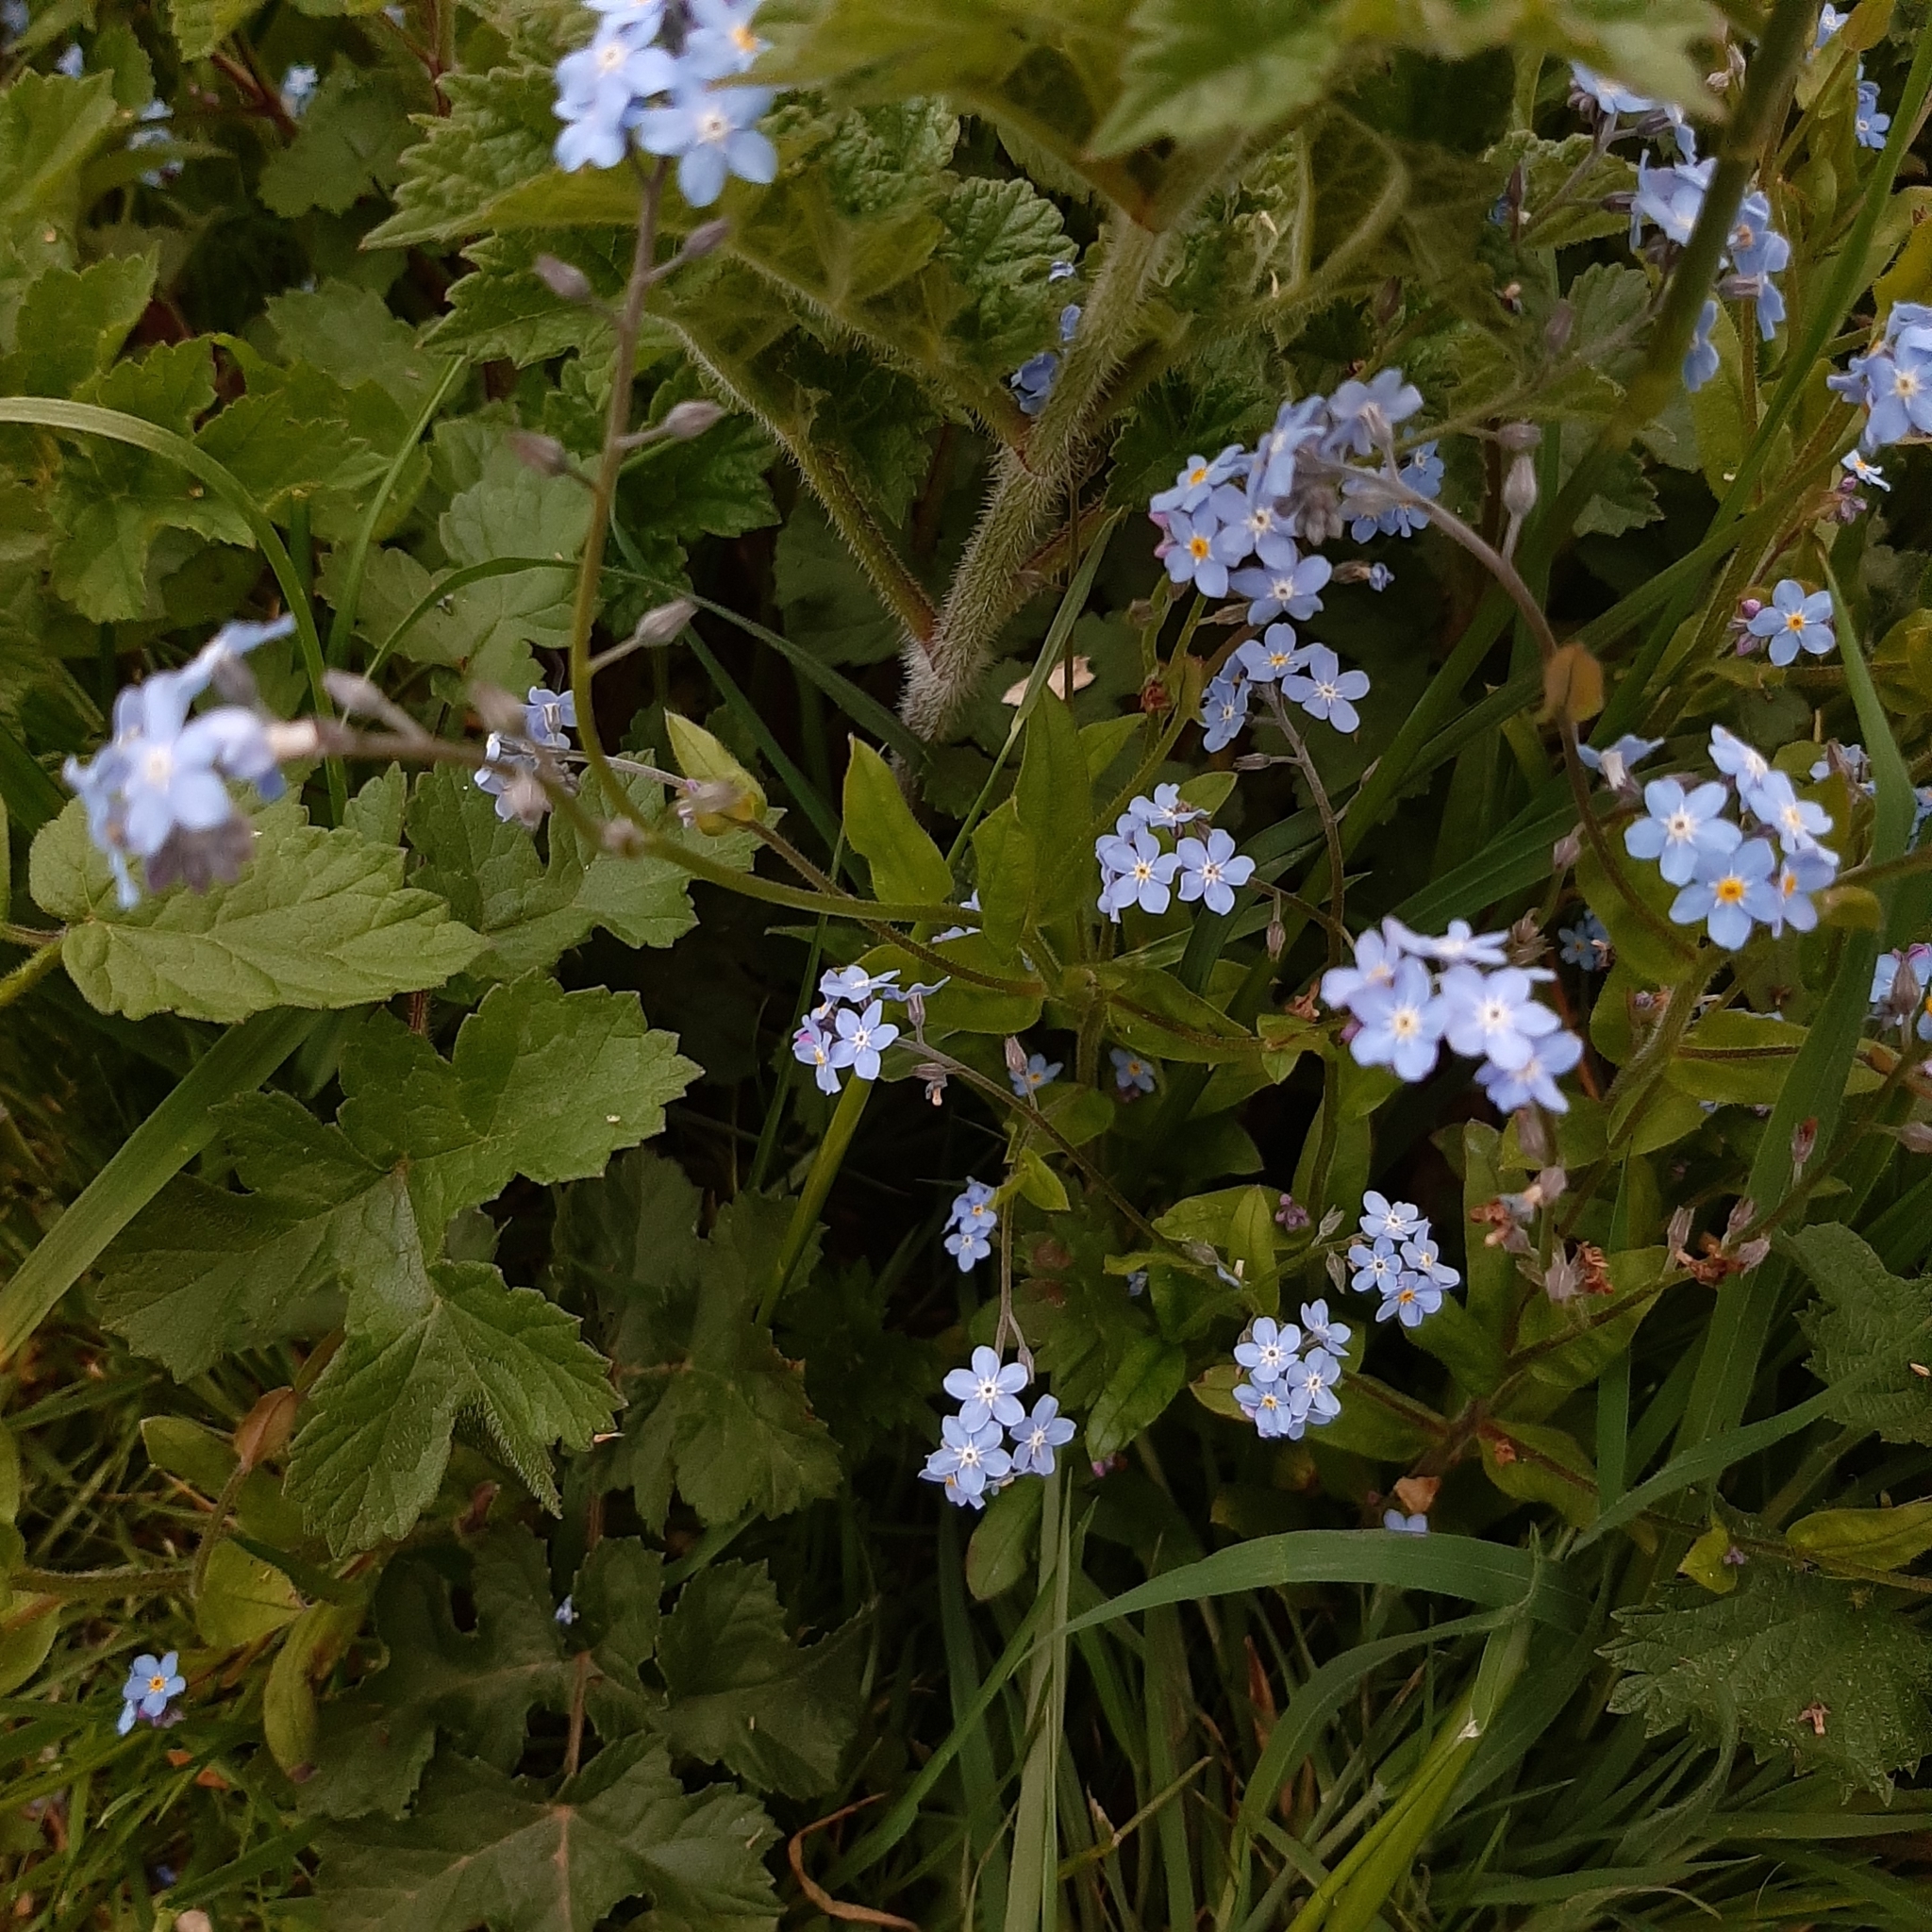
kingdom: Plantae
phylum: Tracheophyta
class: Magnoliopsida
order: Boraginales
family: Boraginaceae
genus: Myosotis
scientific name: Myosotis sylvatica
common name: Wood forget-me-not
